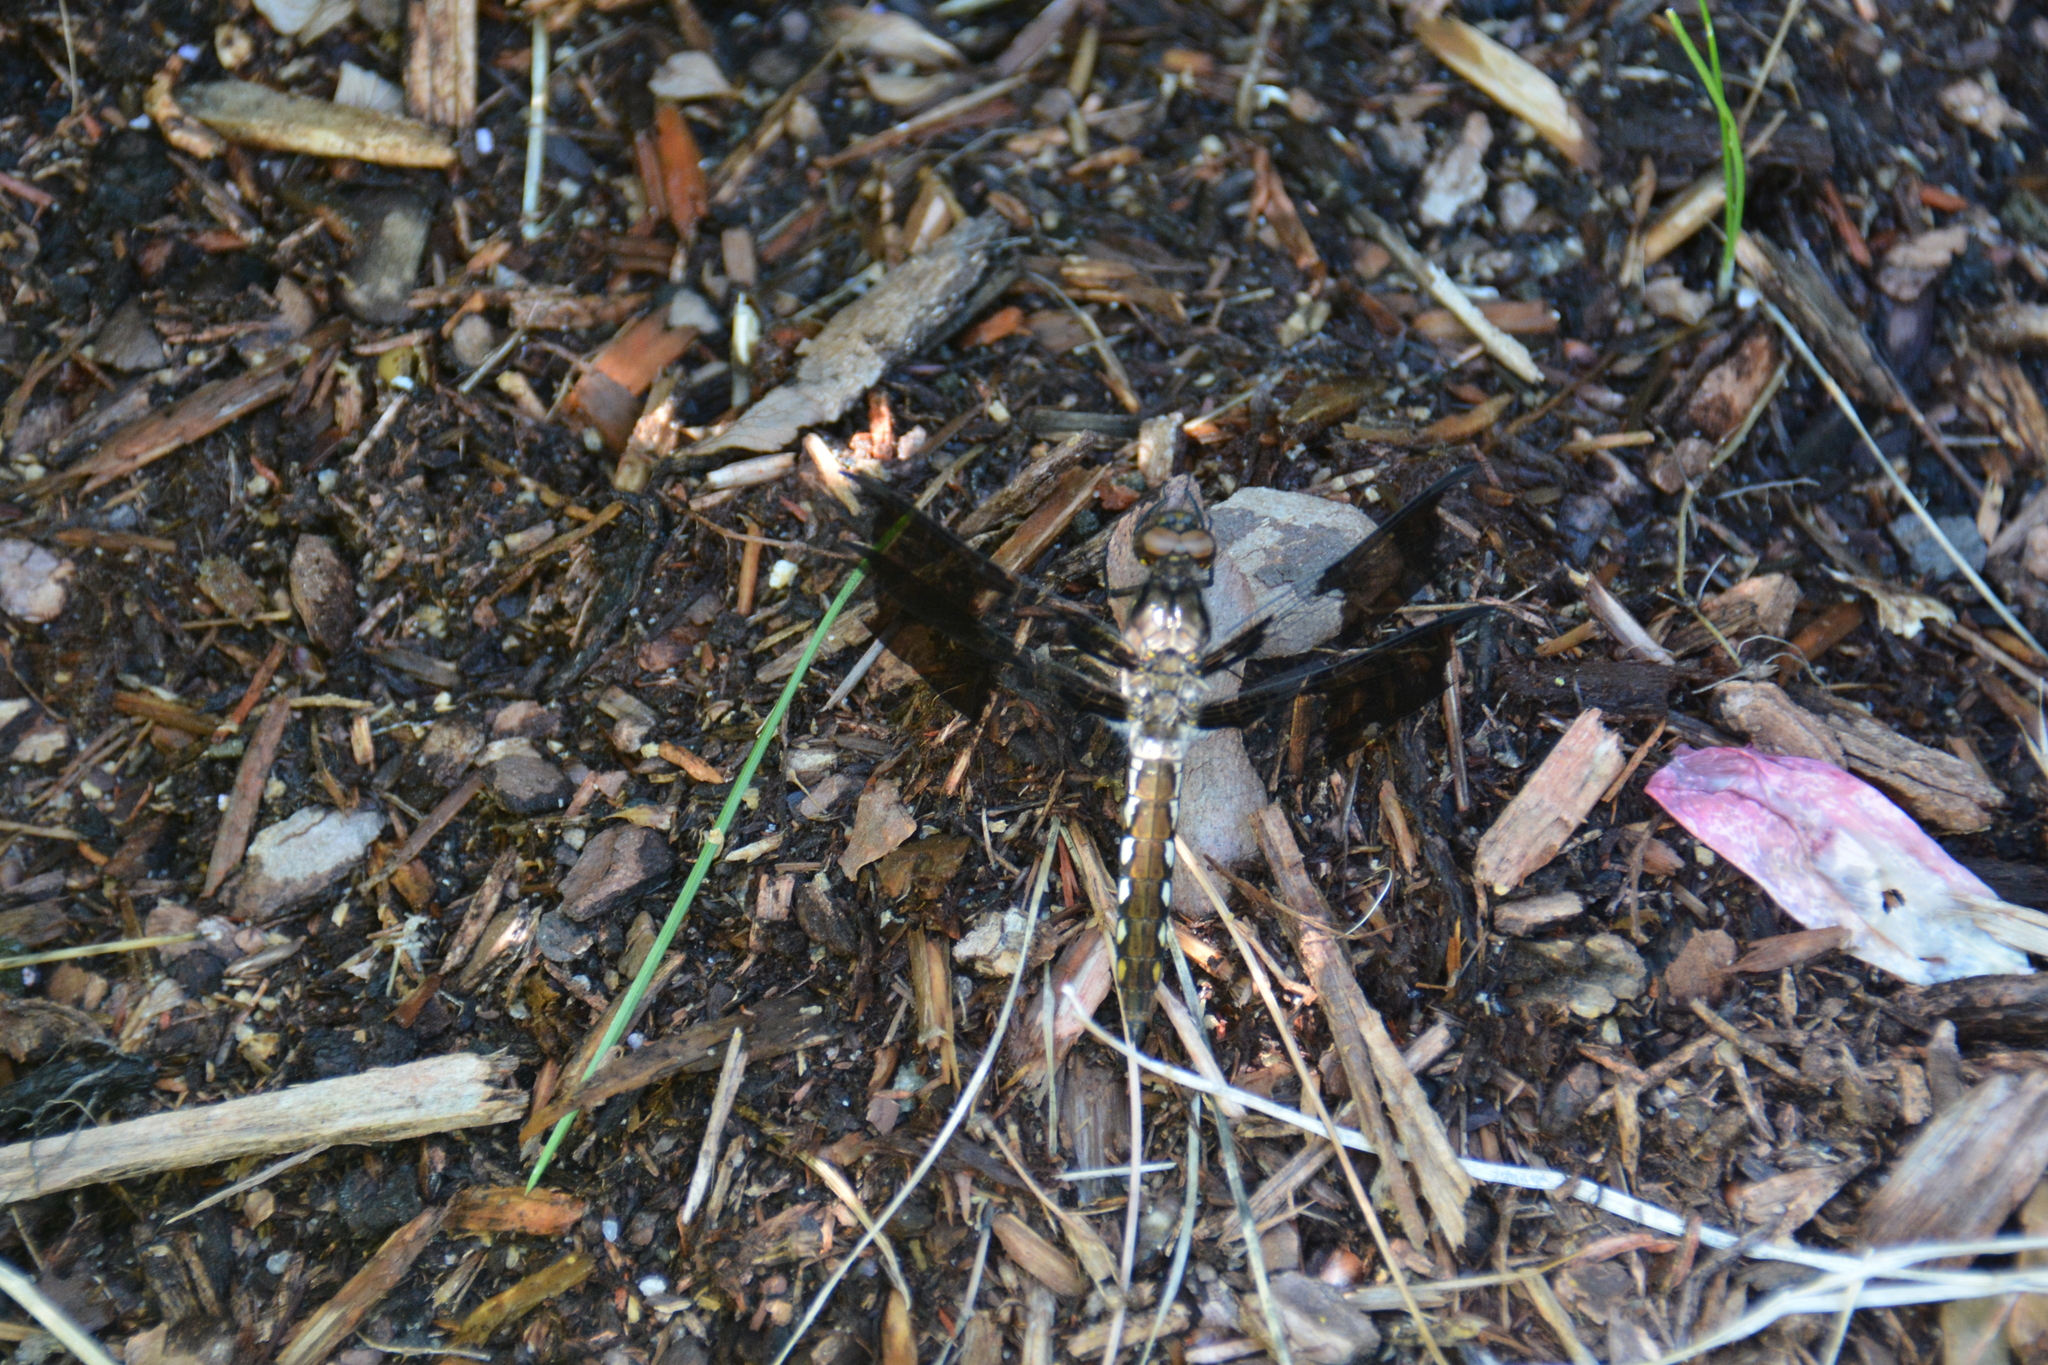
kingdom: Animalia
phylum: Arthropoda
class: Insecta
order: Odonata
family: Libellulidae
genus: Plathemis
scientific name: Plathemis lydia
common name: Common whitetail
